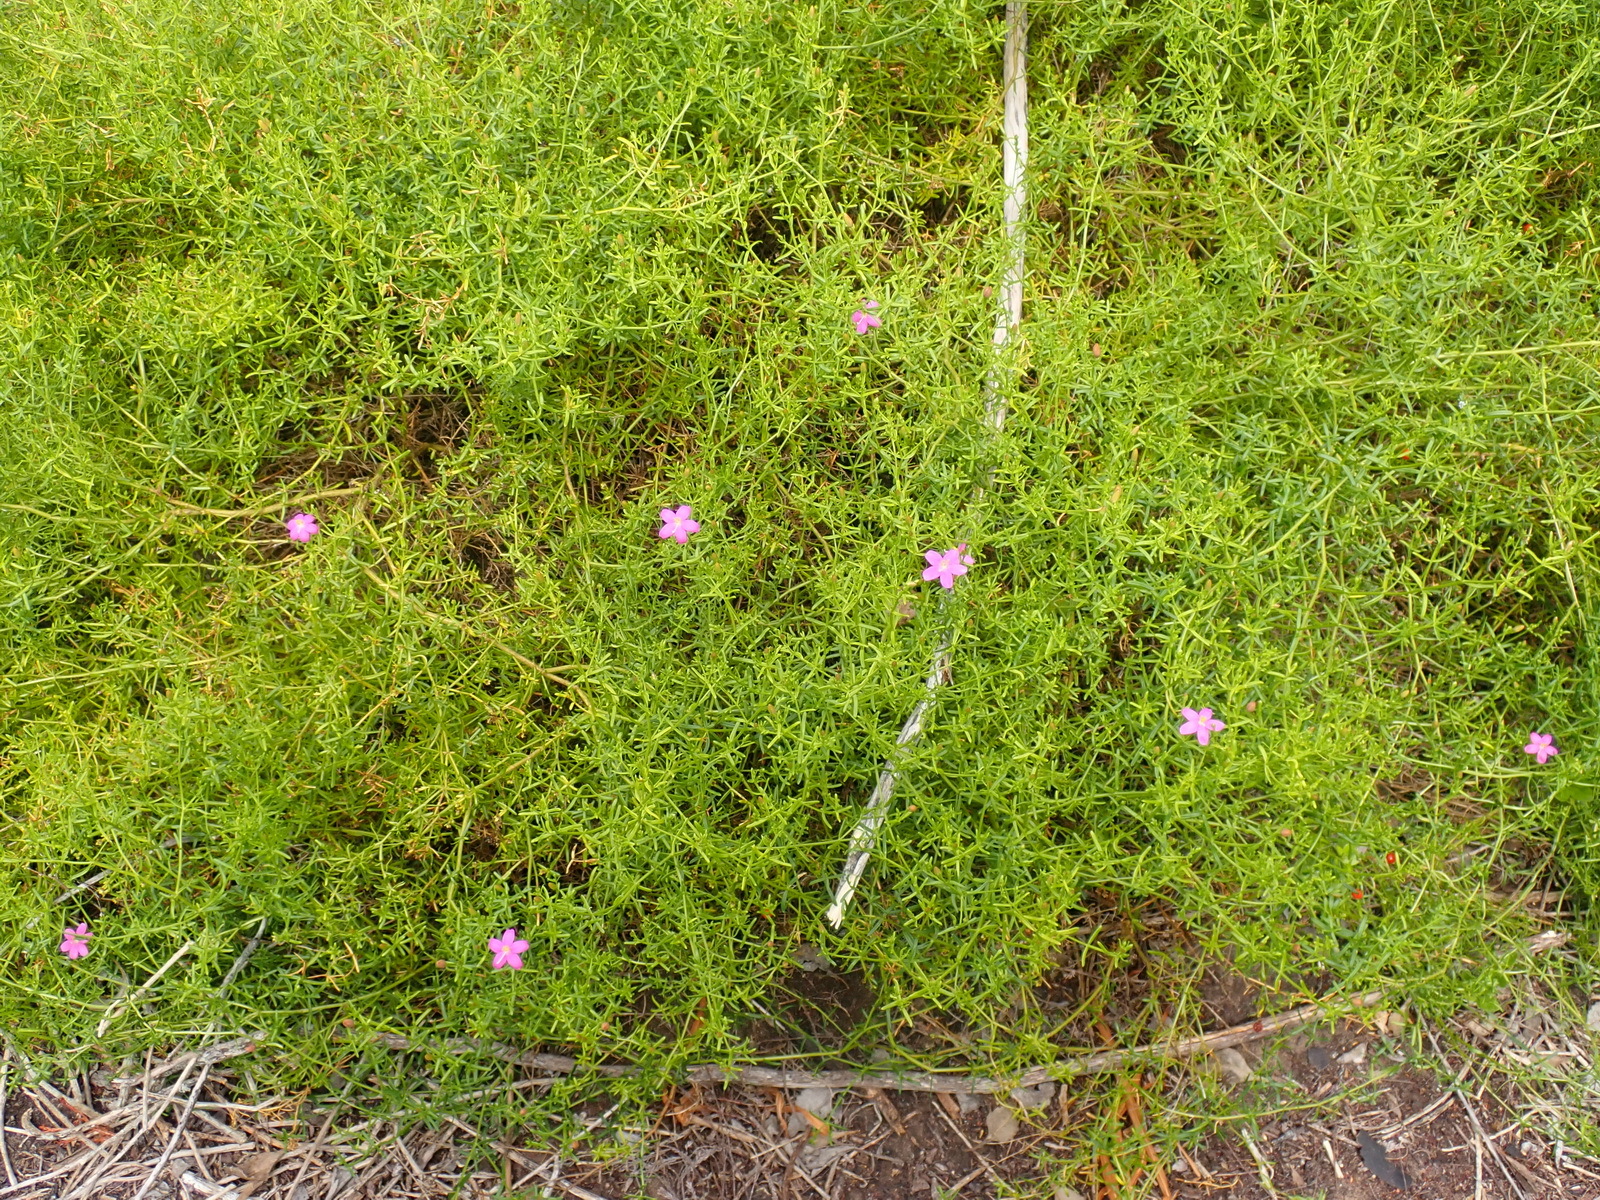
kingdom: Plantae
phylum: Tracheophyta
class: Magnoliopsida
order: Gentianales
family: Gentianaceae
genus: Chironia
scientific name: Chironia baccifera
